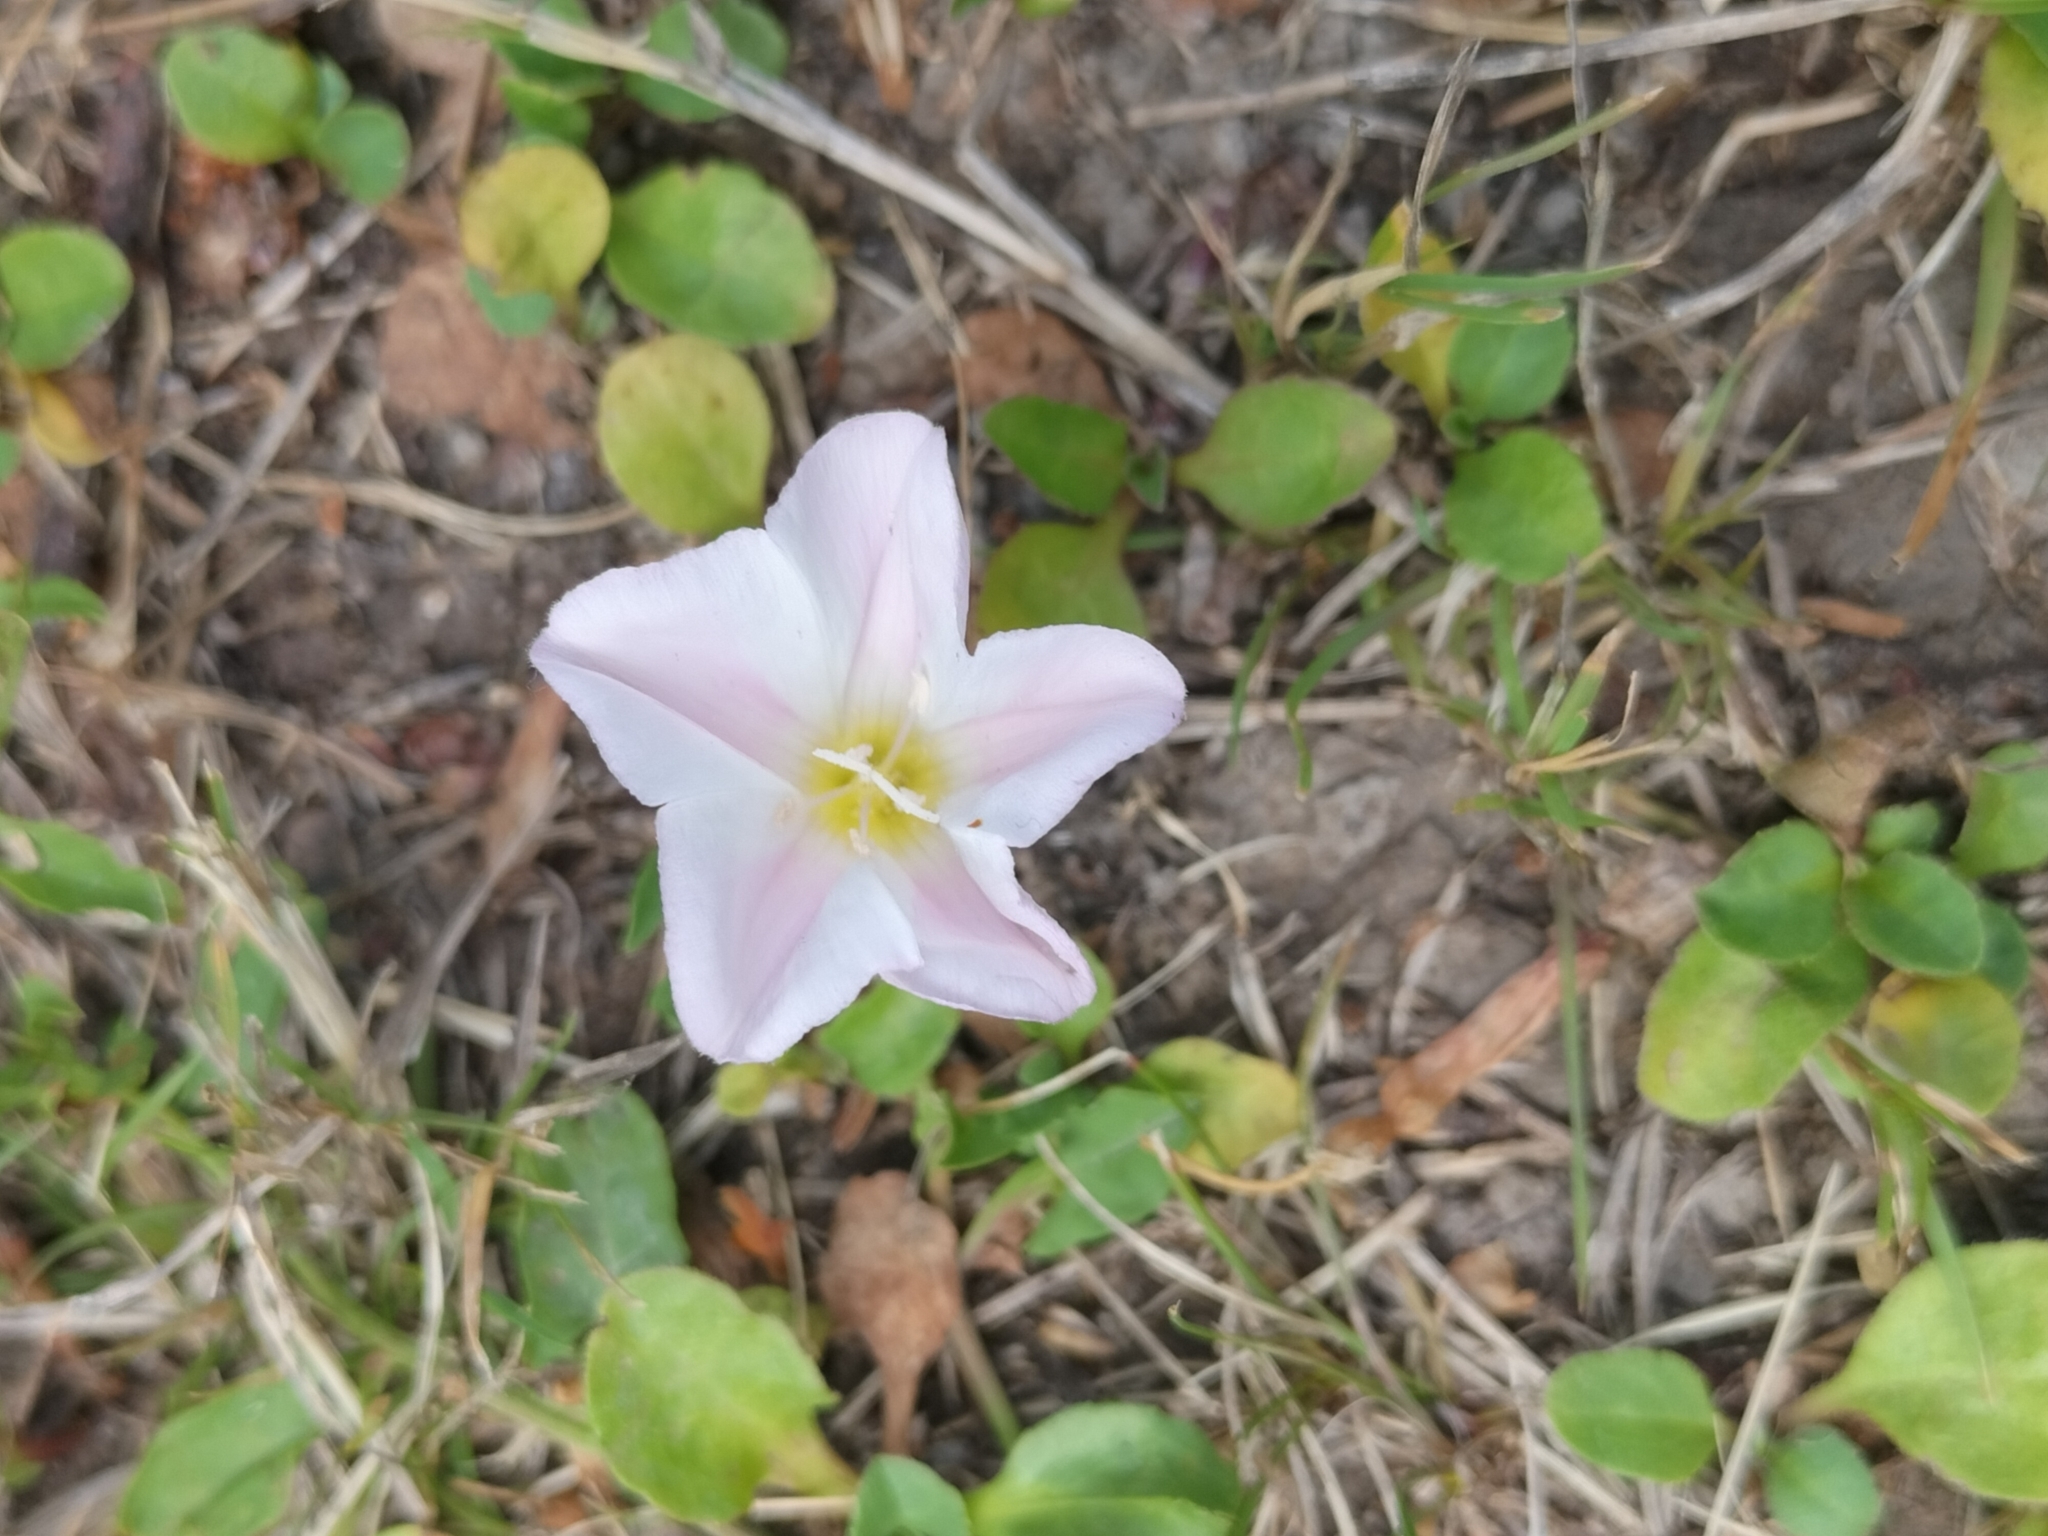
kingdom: Plantae
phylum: Tracheophyta
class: Magnoliopsida
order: Solanales
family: Convolvulaceae
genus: Convolvulus
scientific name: Convolvulus arvensis
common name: Field bindweed
